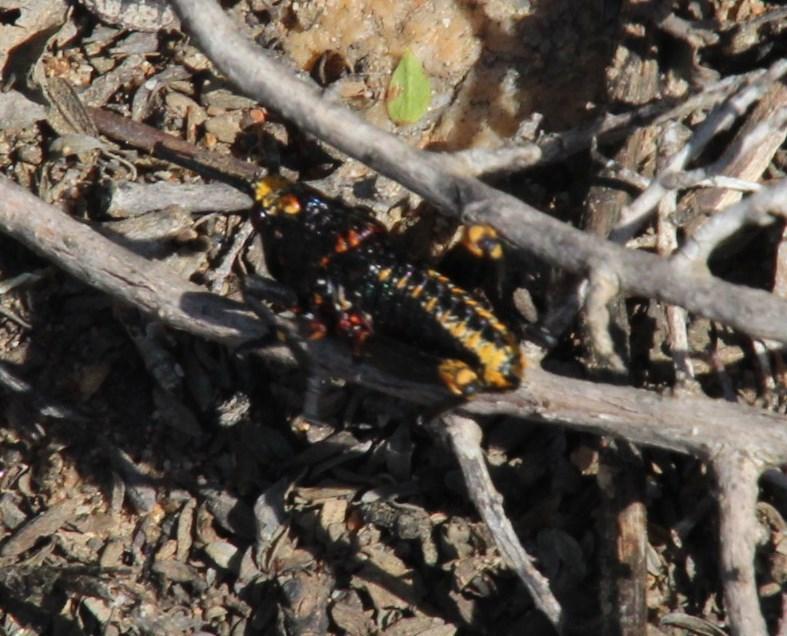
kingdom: Animalia
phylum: Arthropoda
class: Insecta
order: Orthoptera
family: Pyrgomorphidae
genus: Dictyophorus
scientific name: Dictyophorus spumans
